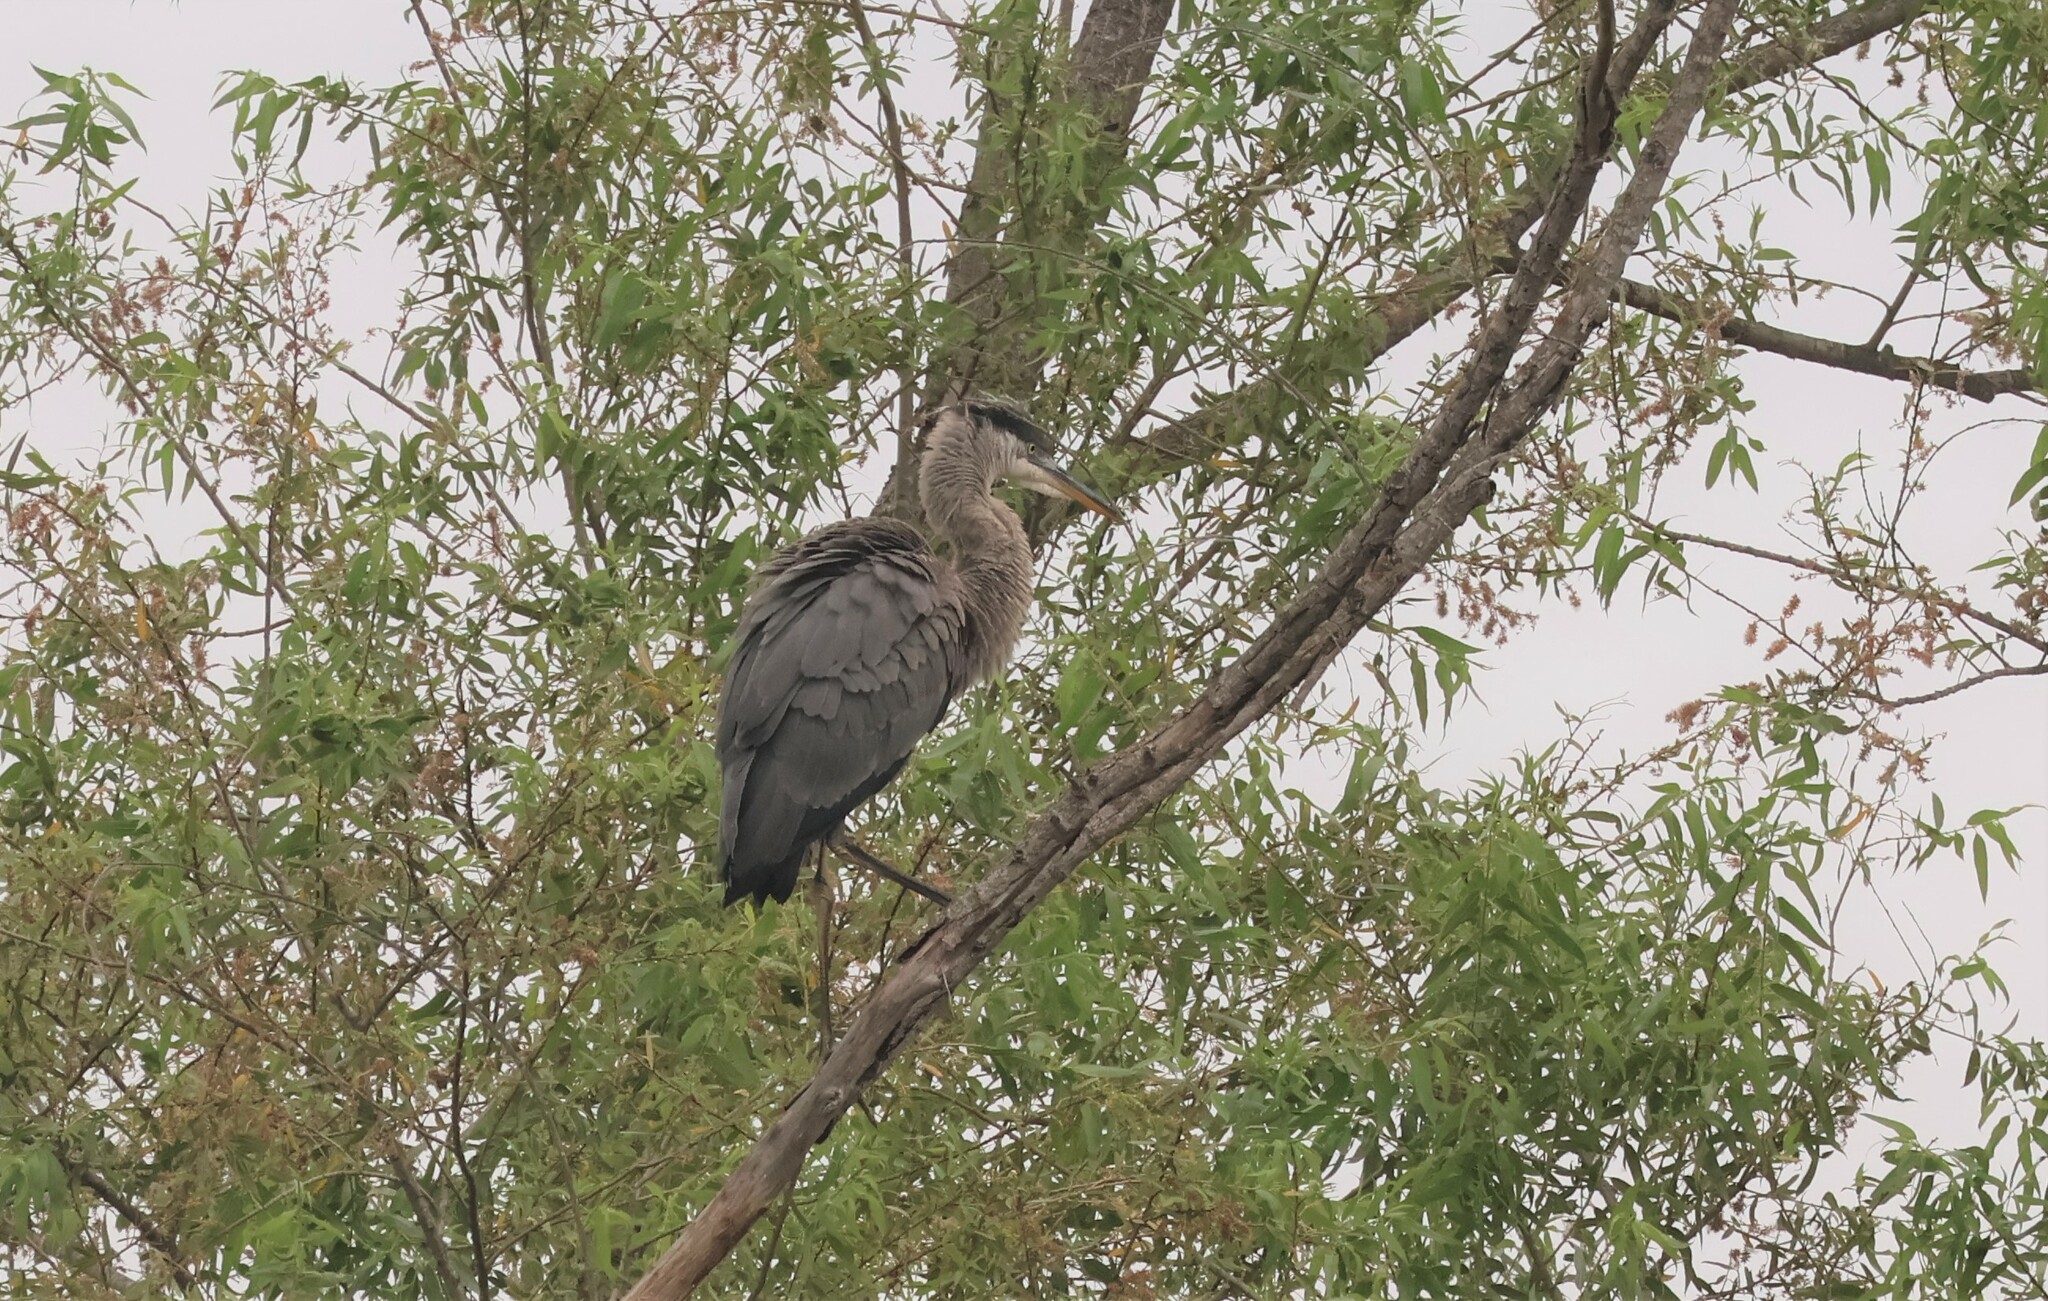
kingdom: Animalia
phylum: Chordata
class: Aves
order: Pelecaniformes
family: Ardeidae
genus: Ardea
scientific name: Ardea herodias
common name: Great blue heron
